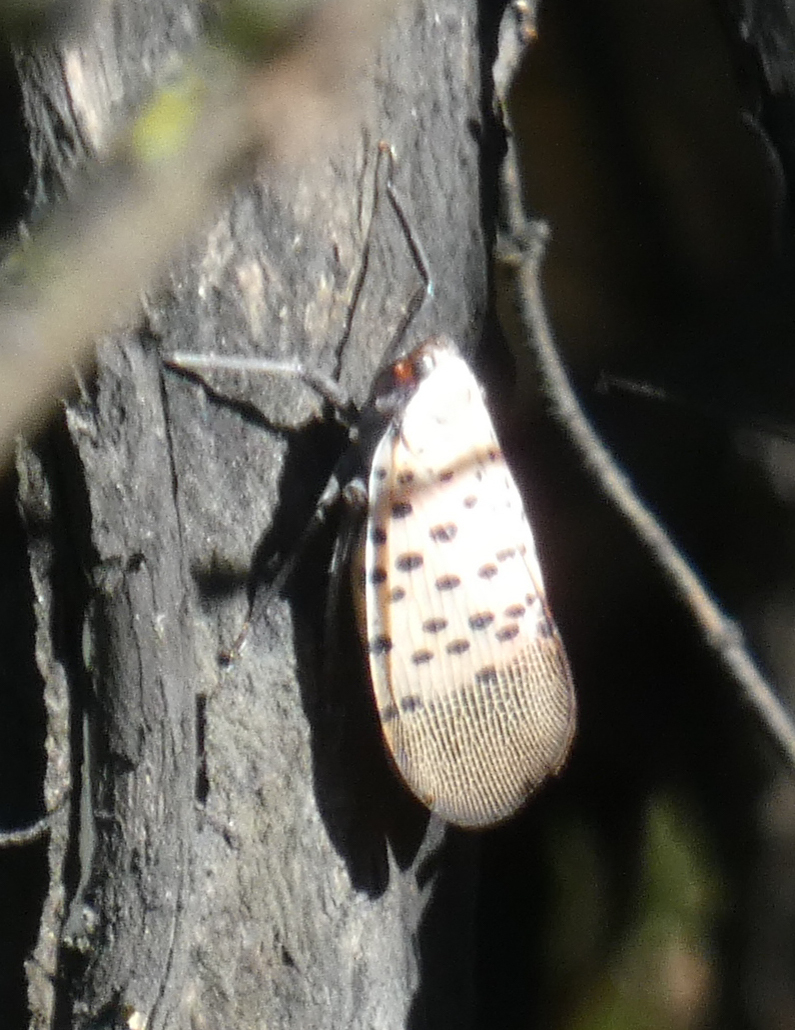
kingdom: Animalia
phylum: Arthropoda
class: Insecta
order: Hemiptera
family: Fulgoridae
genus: Lycorma
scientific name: Lycorma delicatula
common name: Spotted lanternfly
